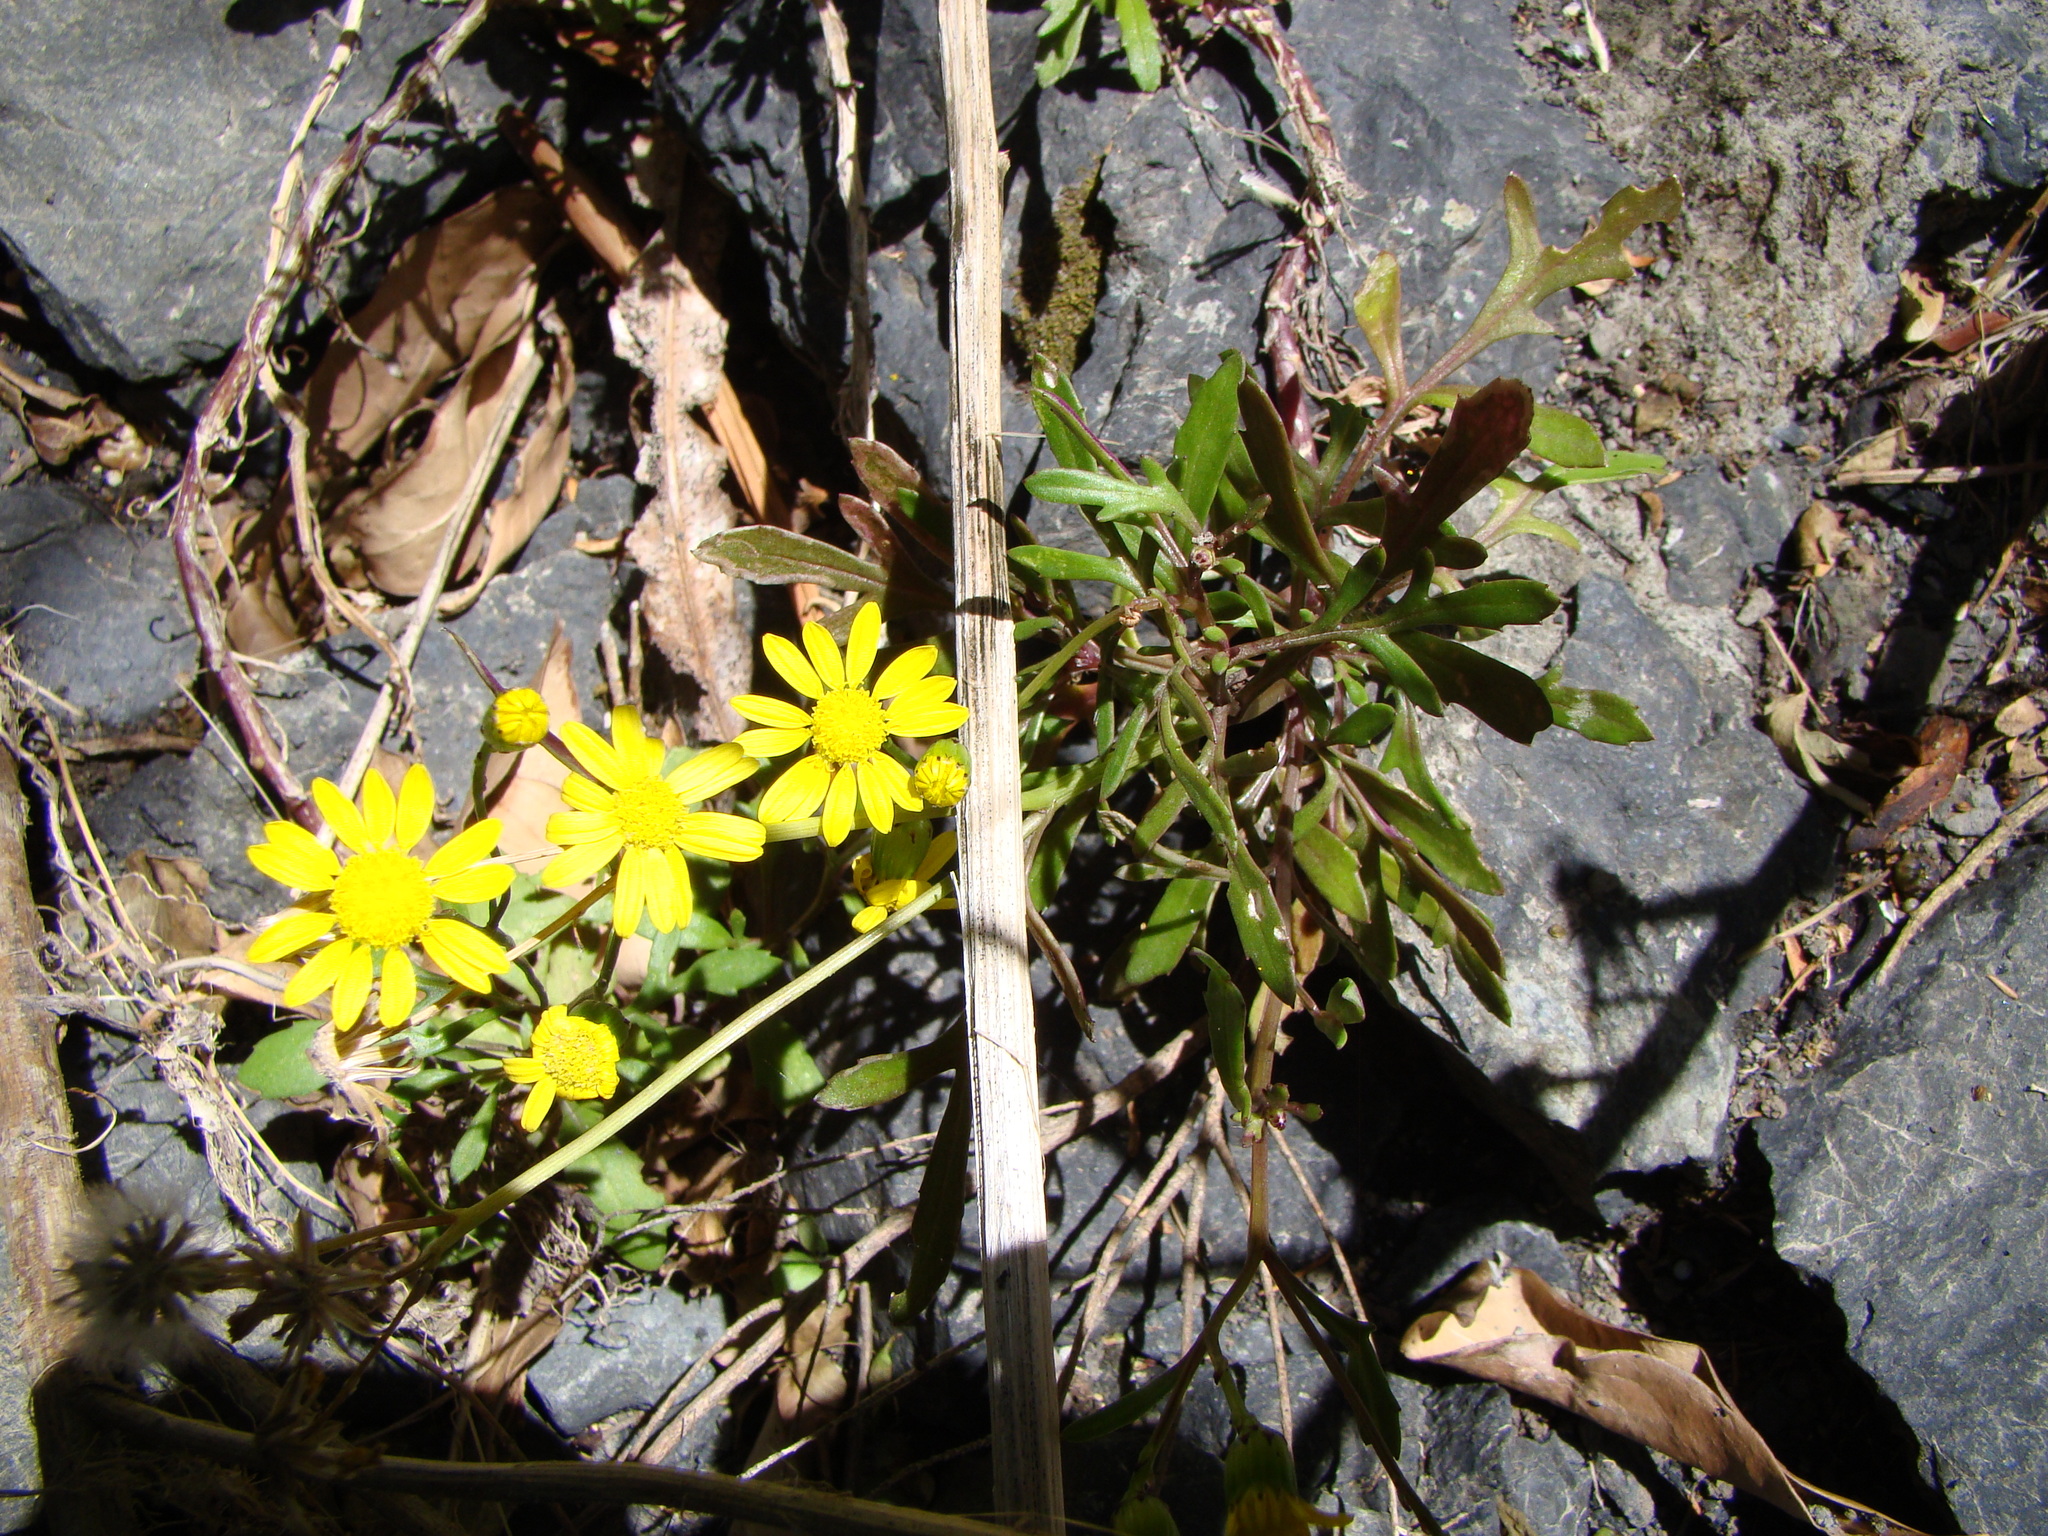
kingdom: Plantae
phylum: Tracheophyta
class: Magnoliopsida
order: Asterales
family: Asteraceae
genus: Senecio
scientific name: Senecio skirrhodon
